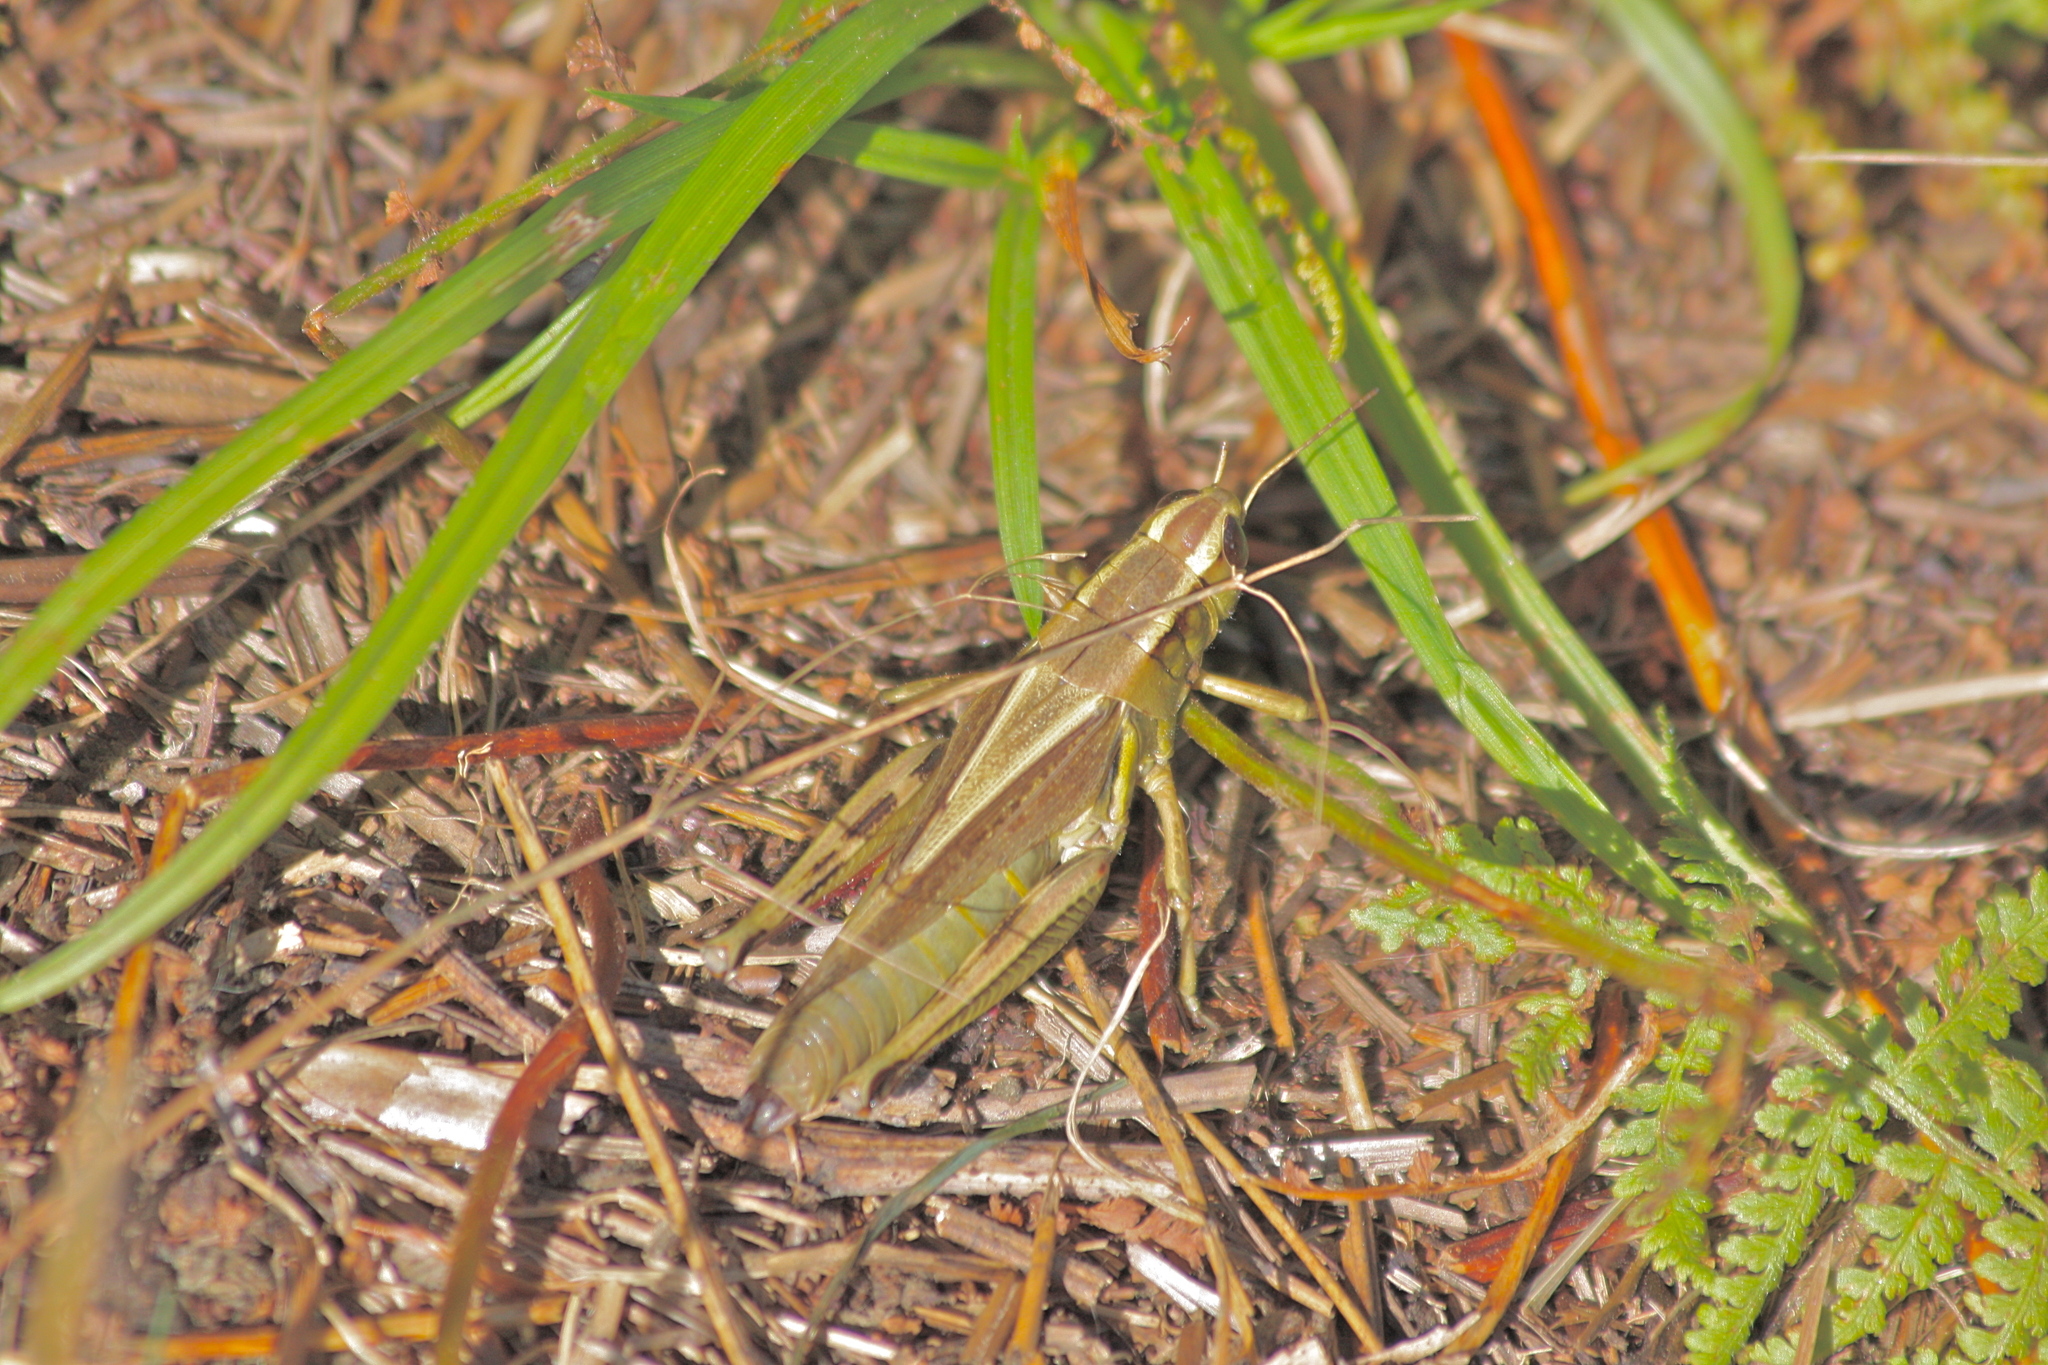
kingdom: Animalia
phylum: Arthropoda
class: Insecta
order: Orthoptera
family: Acrididae
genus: Melanoplus
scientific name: Melanoplus bivittatus
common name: Two-striped grasshopper
